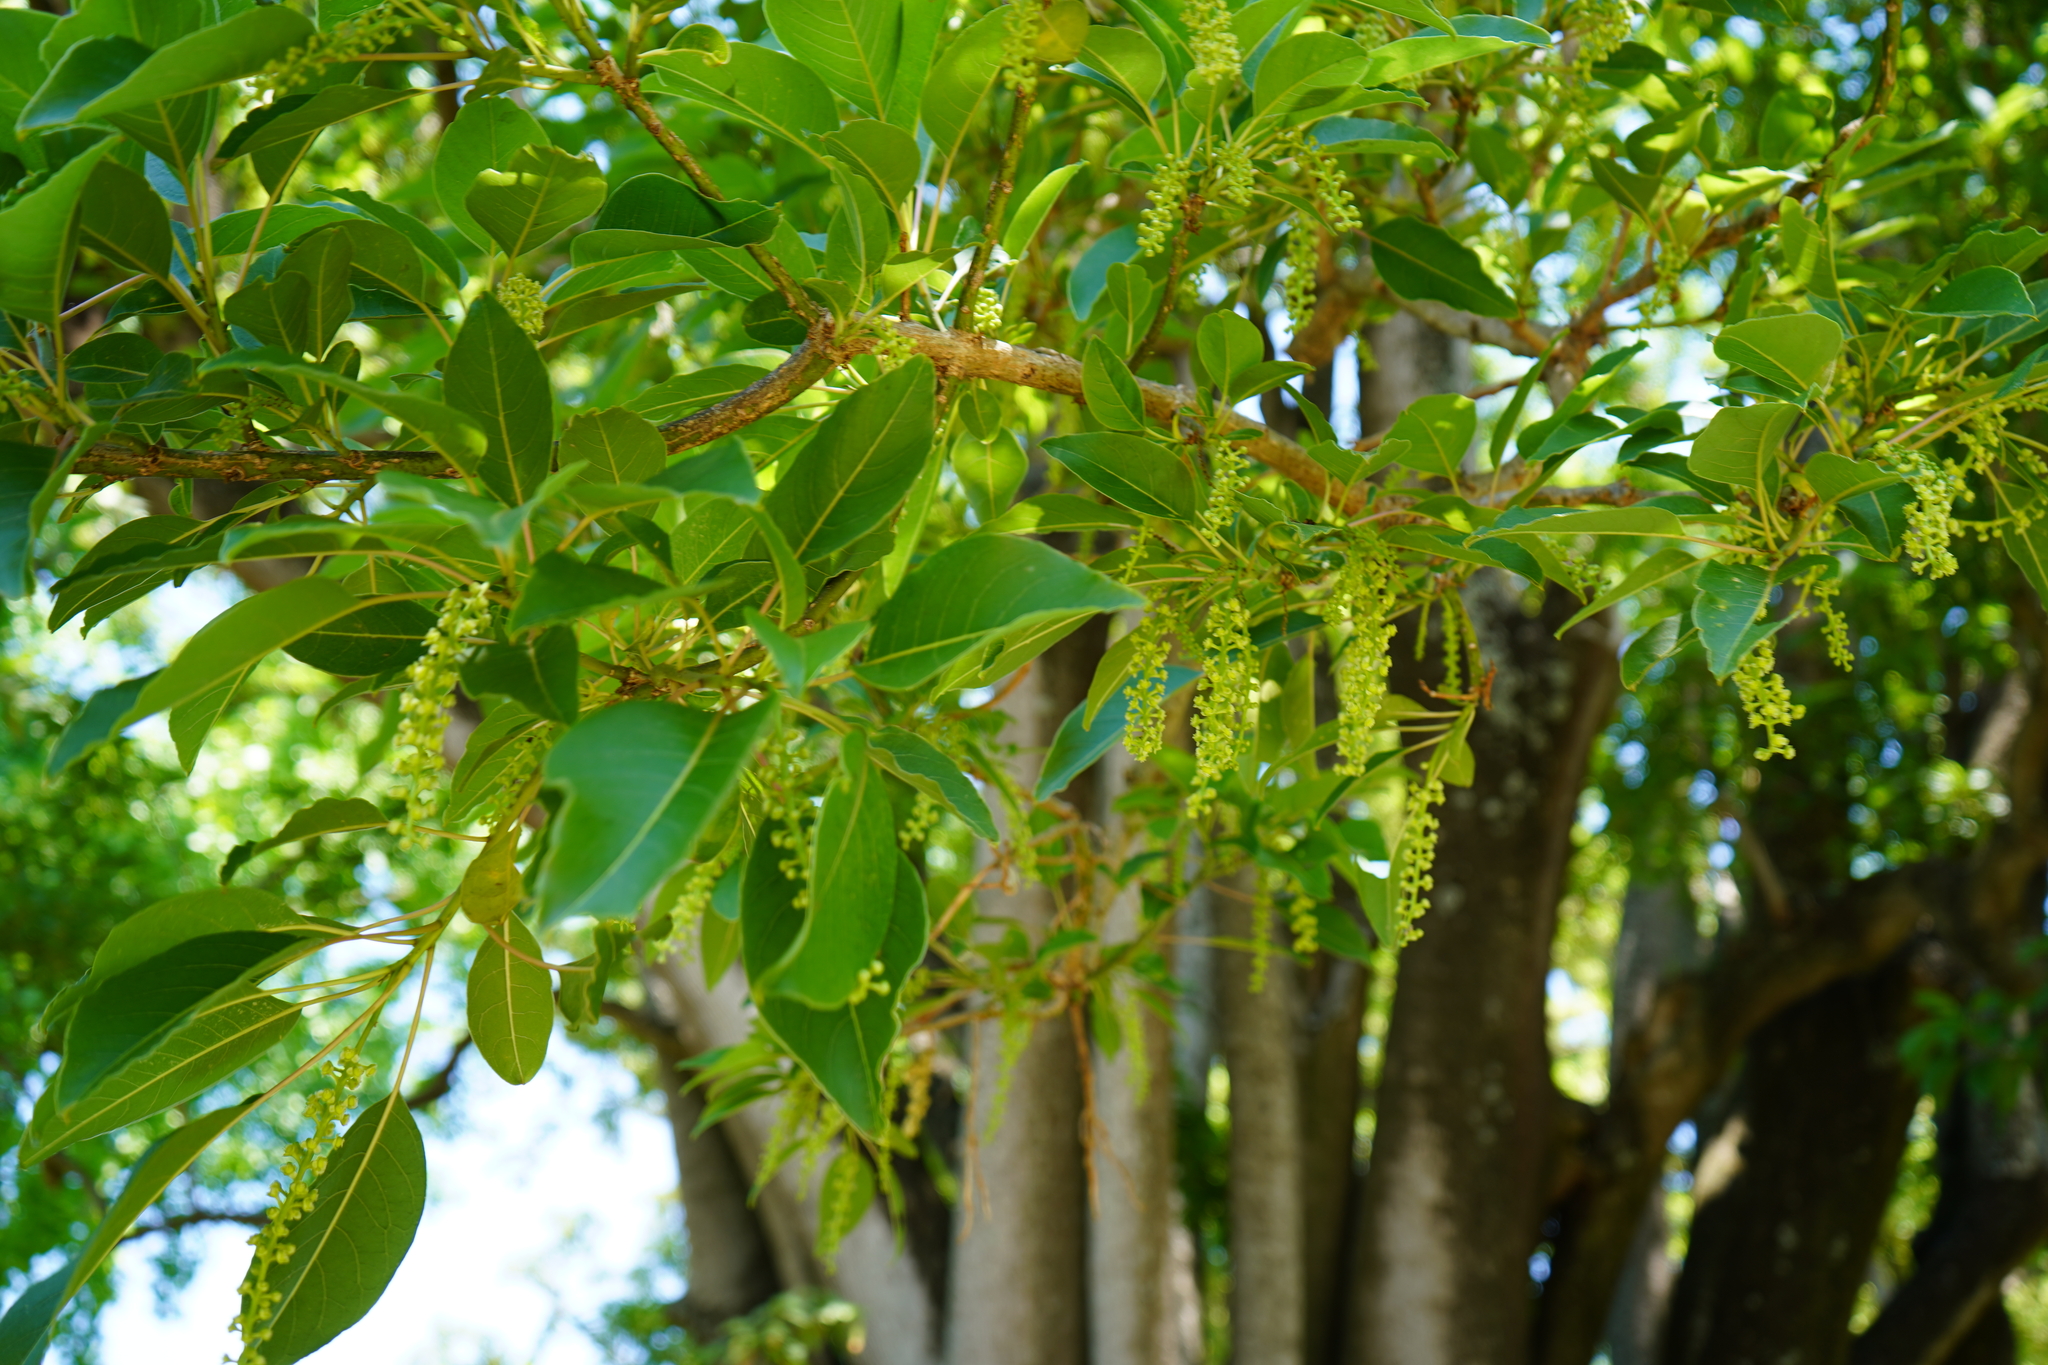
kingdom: Plantae
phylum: Tracheophyta
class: Magnoliopsida
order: Caryophyllales
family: Phytolaccaceae
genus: Phytolacca
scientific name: Phytolacca dioica
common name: Pokeweed
